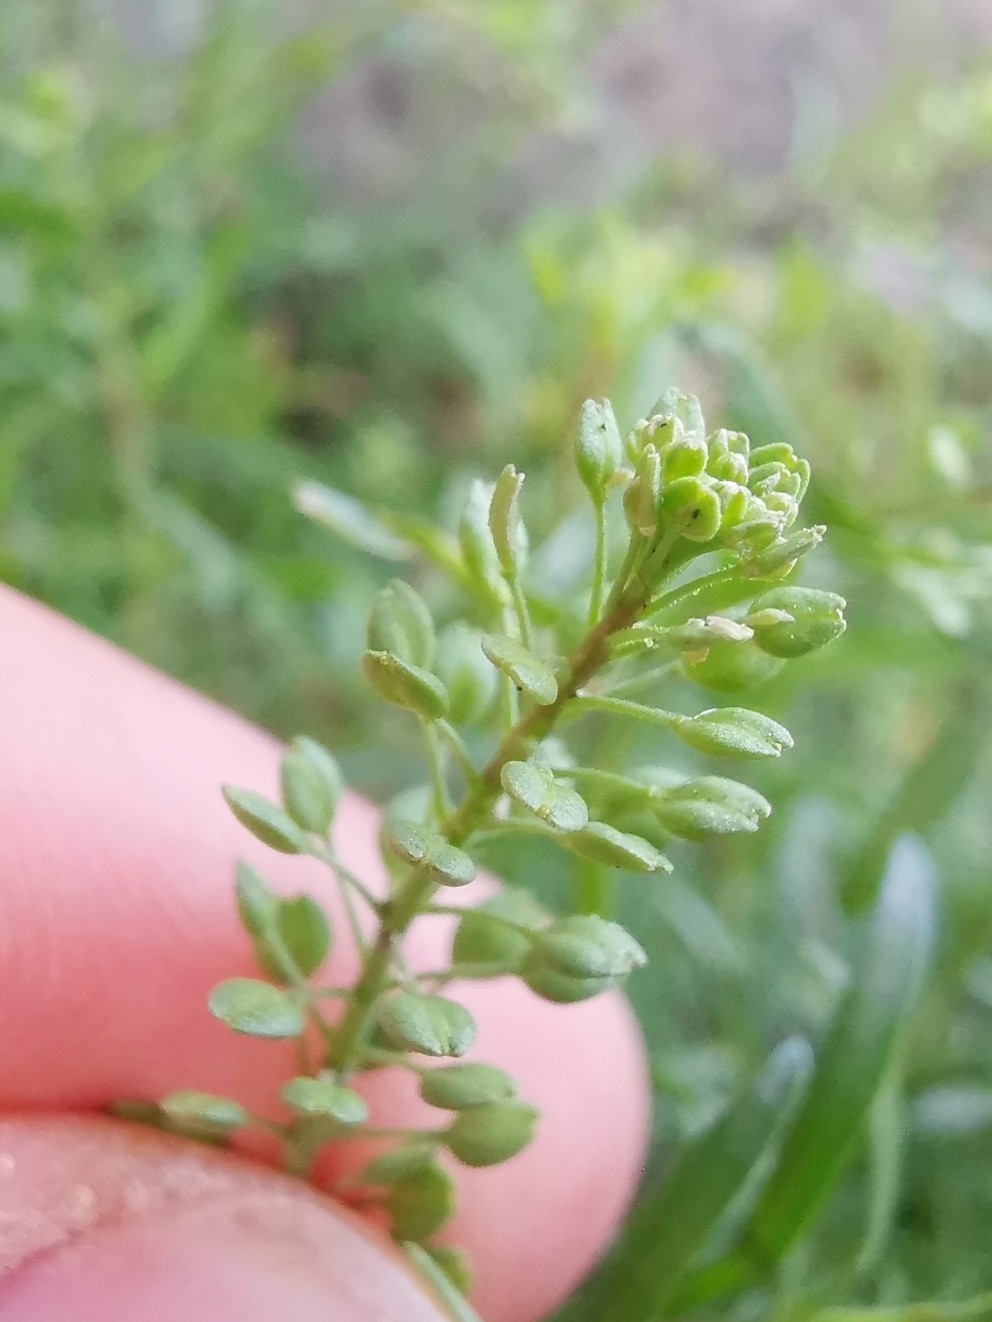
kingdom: Plantae
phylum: Tracheophyta
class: Magnoliopsida
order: Brassicales
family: Brassicaceae
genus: Lepidium
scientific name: Lepidium ruderale
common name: Narrow-leaved pepperwort
